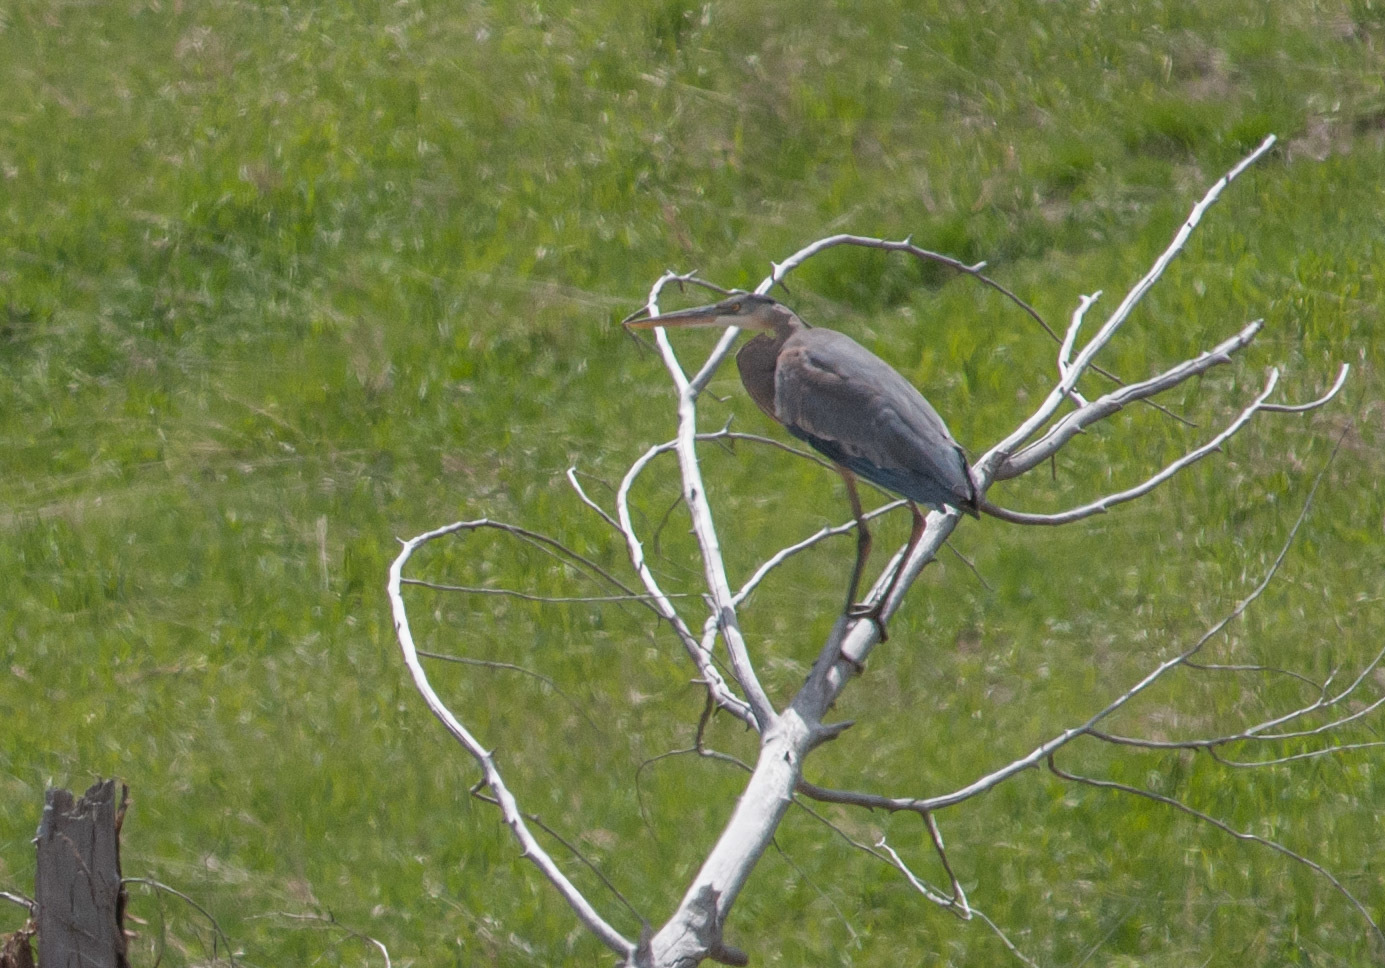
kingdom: Animalia
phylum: Chordata
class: Aves
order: Pelecaniformes
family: Ardeidae
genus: Ardea
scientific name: Ardea herodias
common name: Great blue heron
